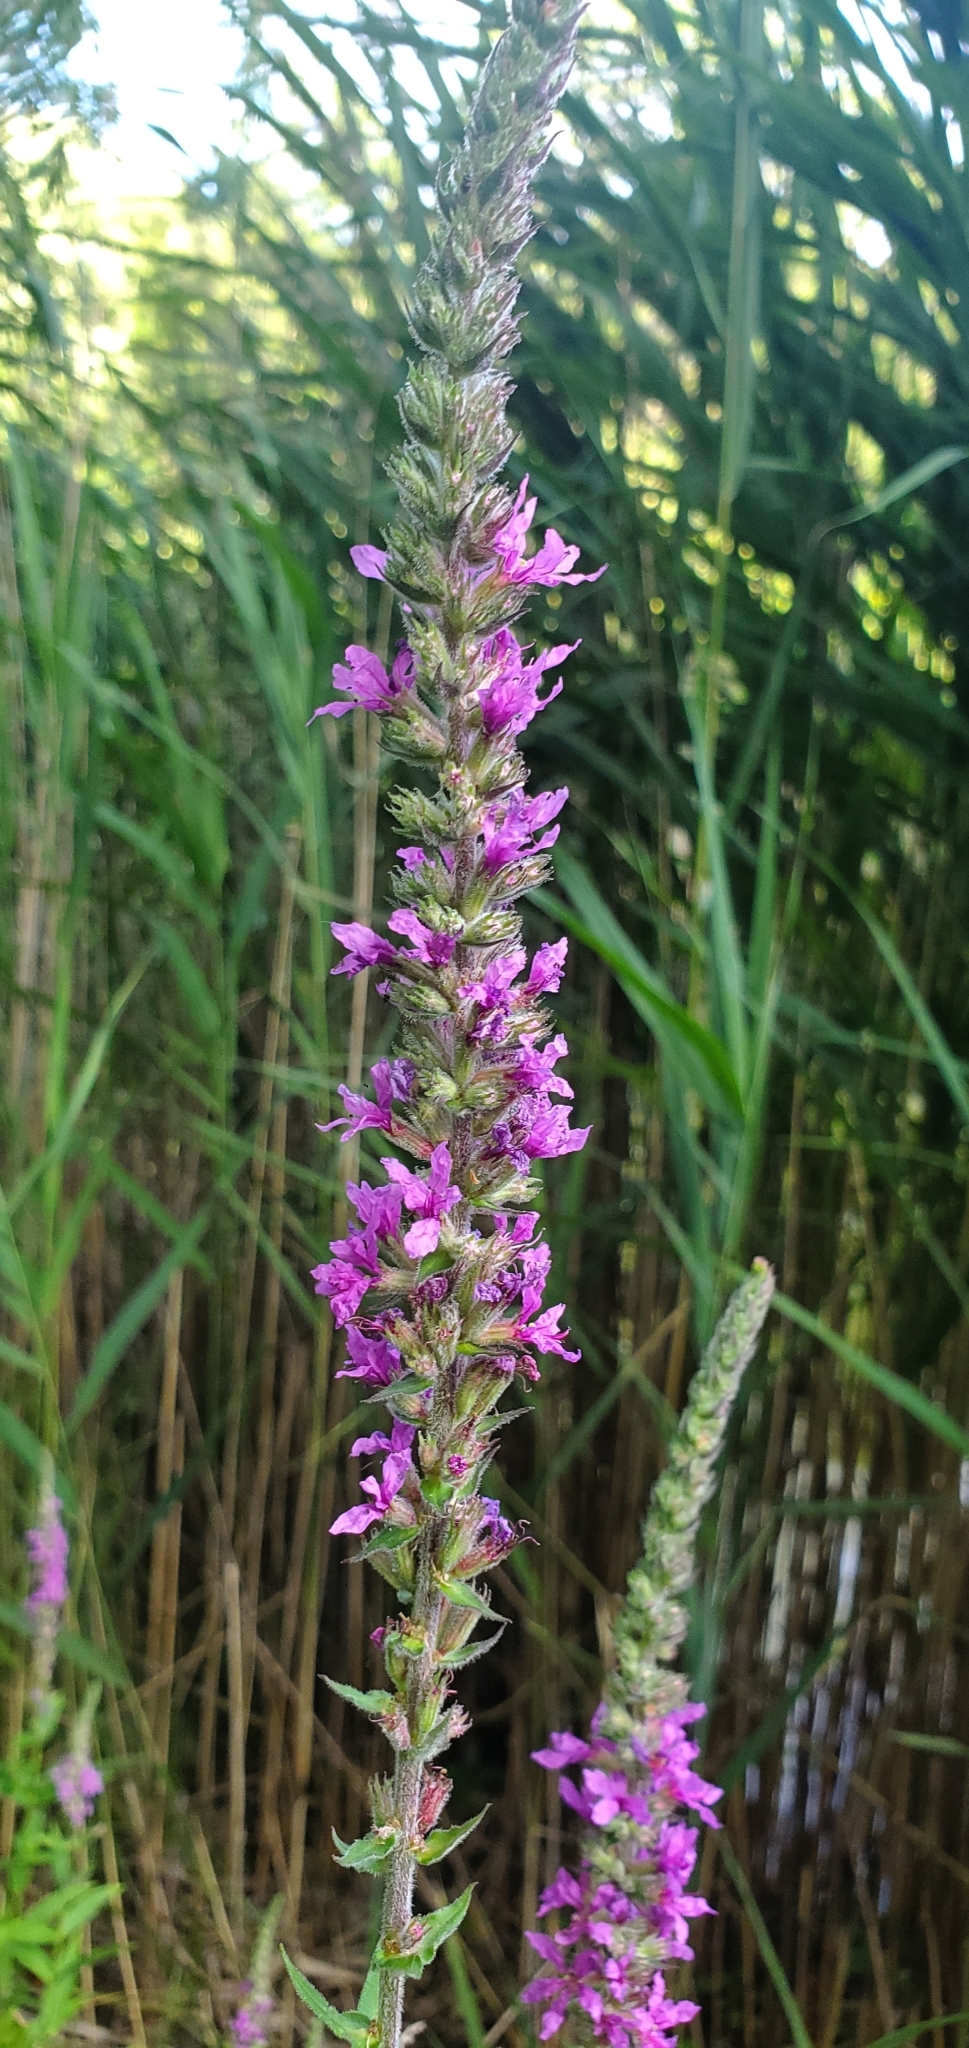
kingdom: Plantae
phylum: Tracheophyta
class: Magnoliopsida
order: Myrtales
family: Lythraceae
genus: Lythrum
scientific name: Lythrum salicaria
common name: Purple loosestrife
